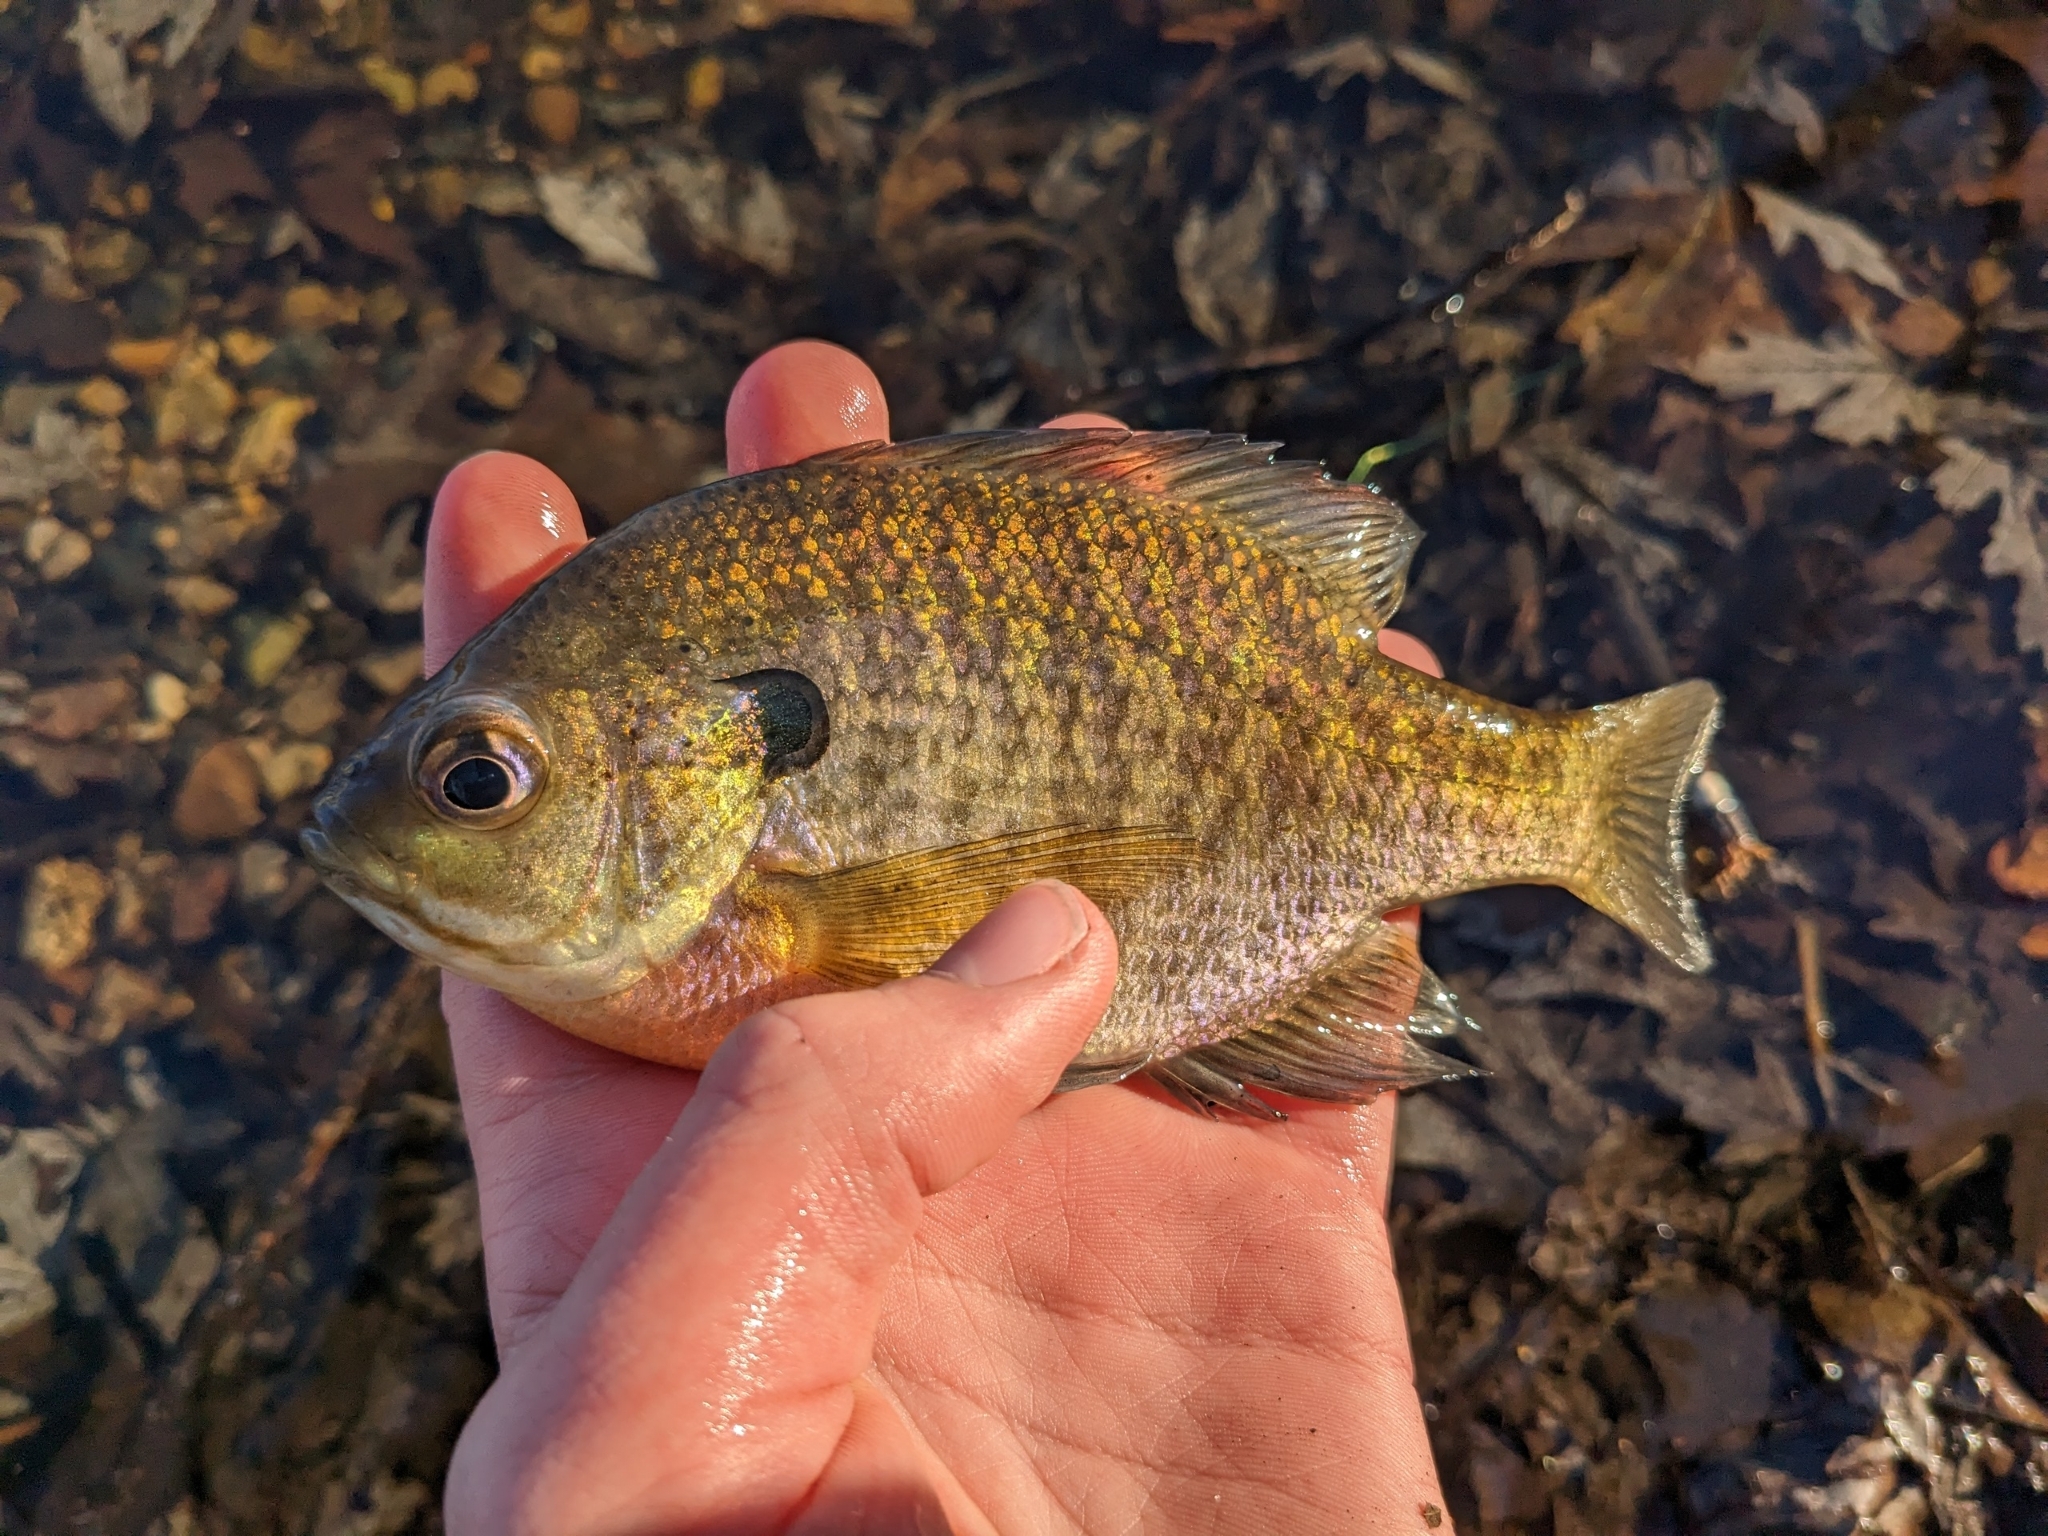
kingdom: Animalia
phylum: Chordata
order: Perciformes
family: Centrarchidae
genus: Lepomis
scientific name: Lepomis macrochirus
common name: Bluegill
